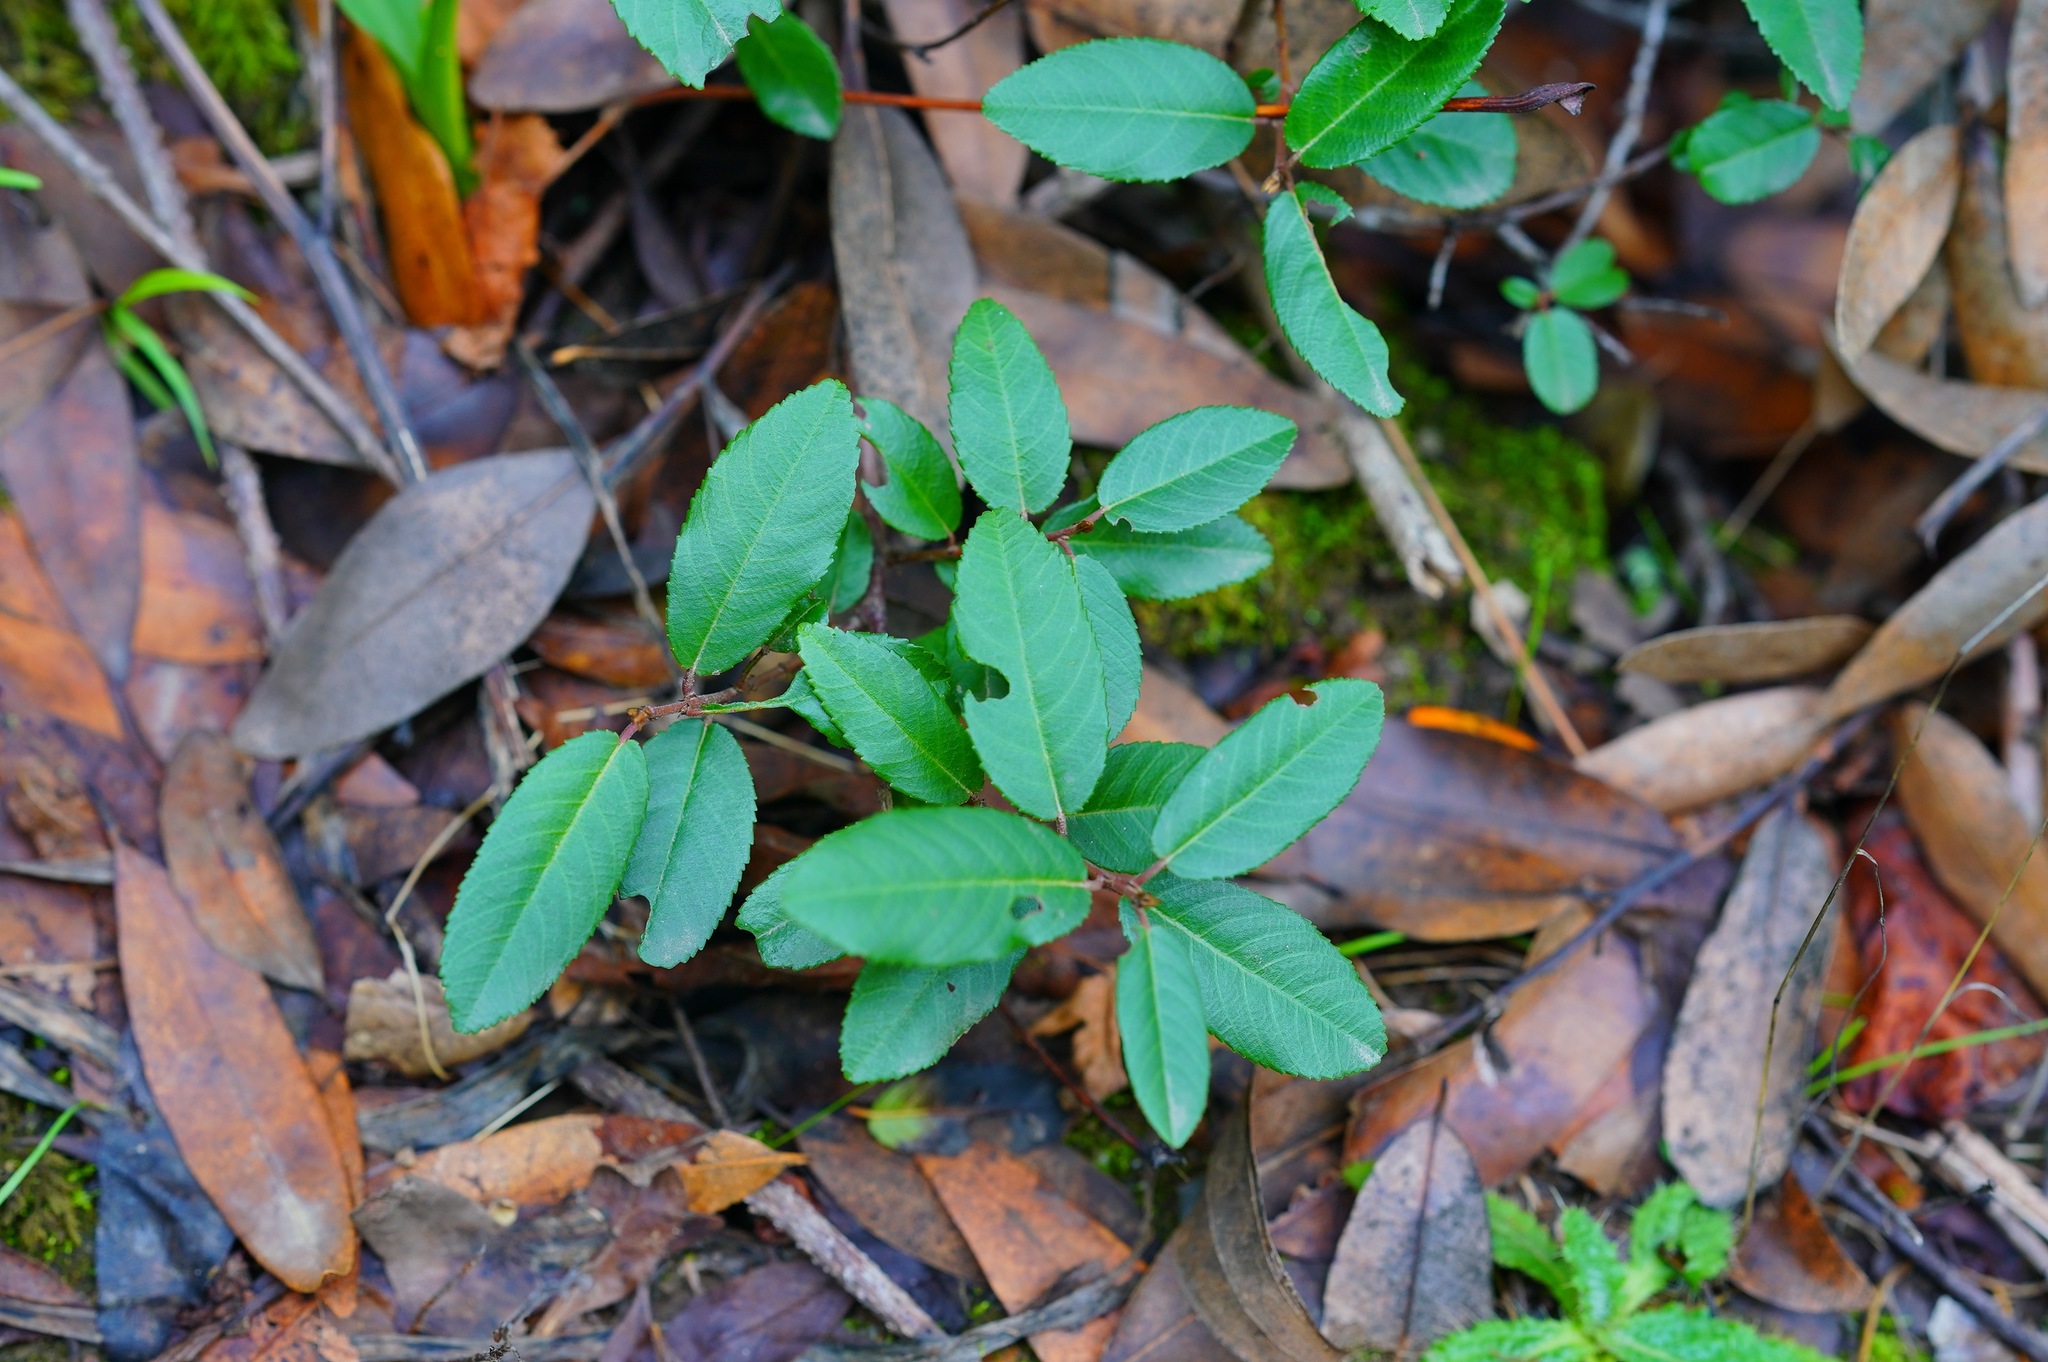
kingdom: Plantae
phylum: Tracheophyta
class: Magnoliopsida
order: Rosales
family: Rhamnaceae
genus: Frangula
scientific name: Frangula californica
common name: California buckthorn
